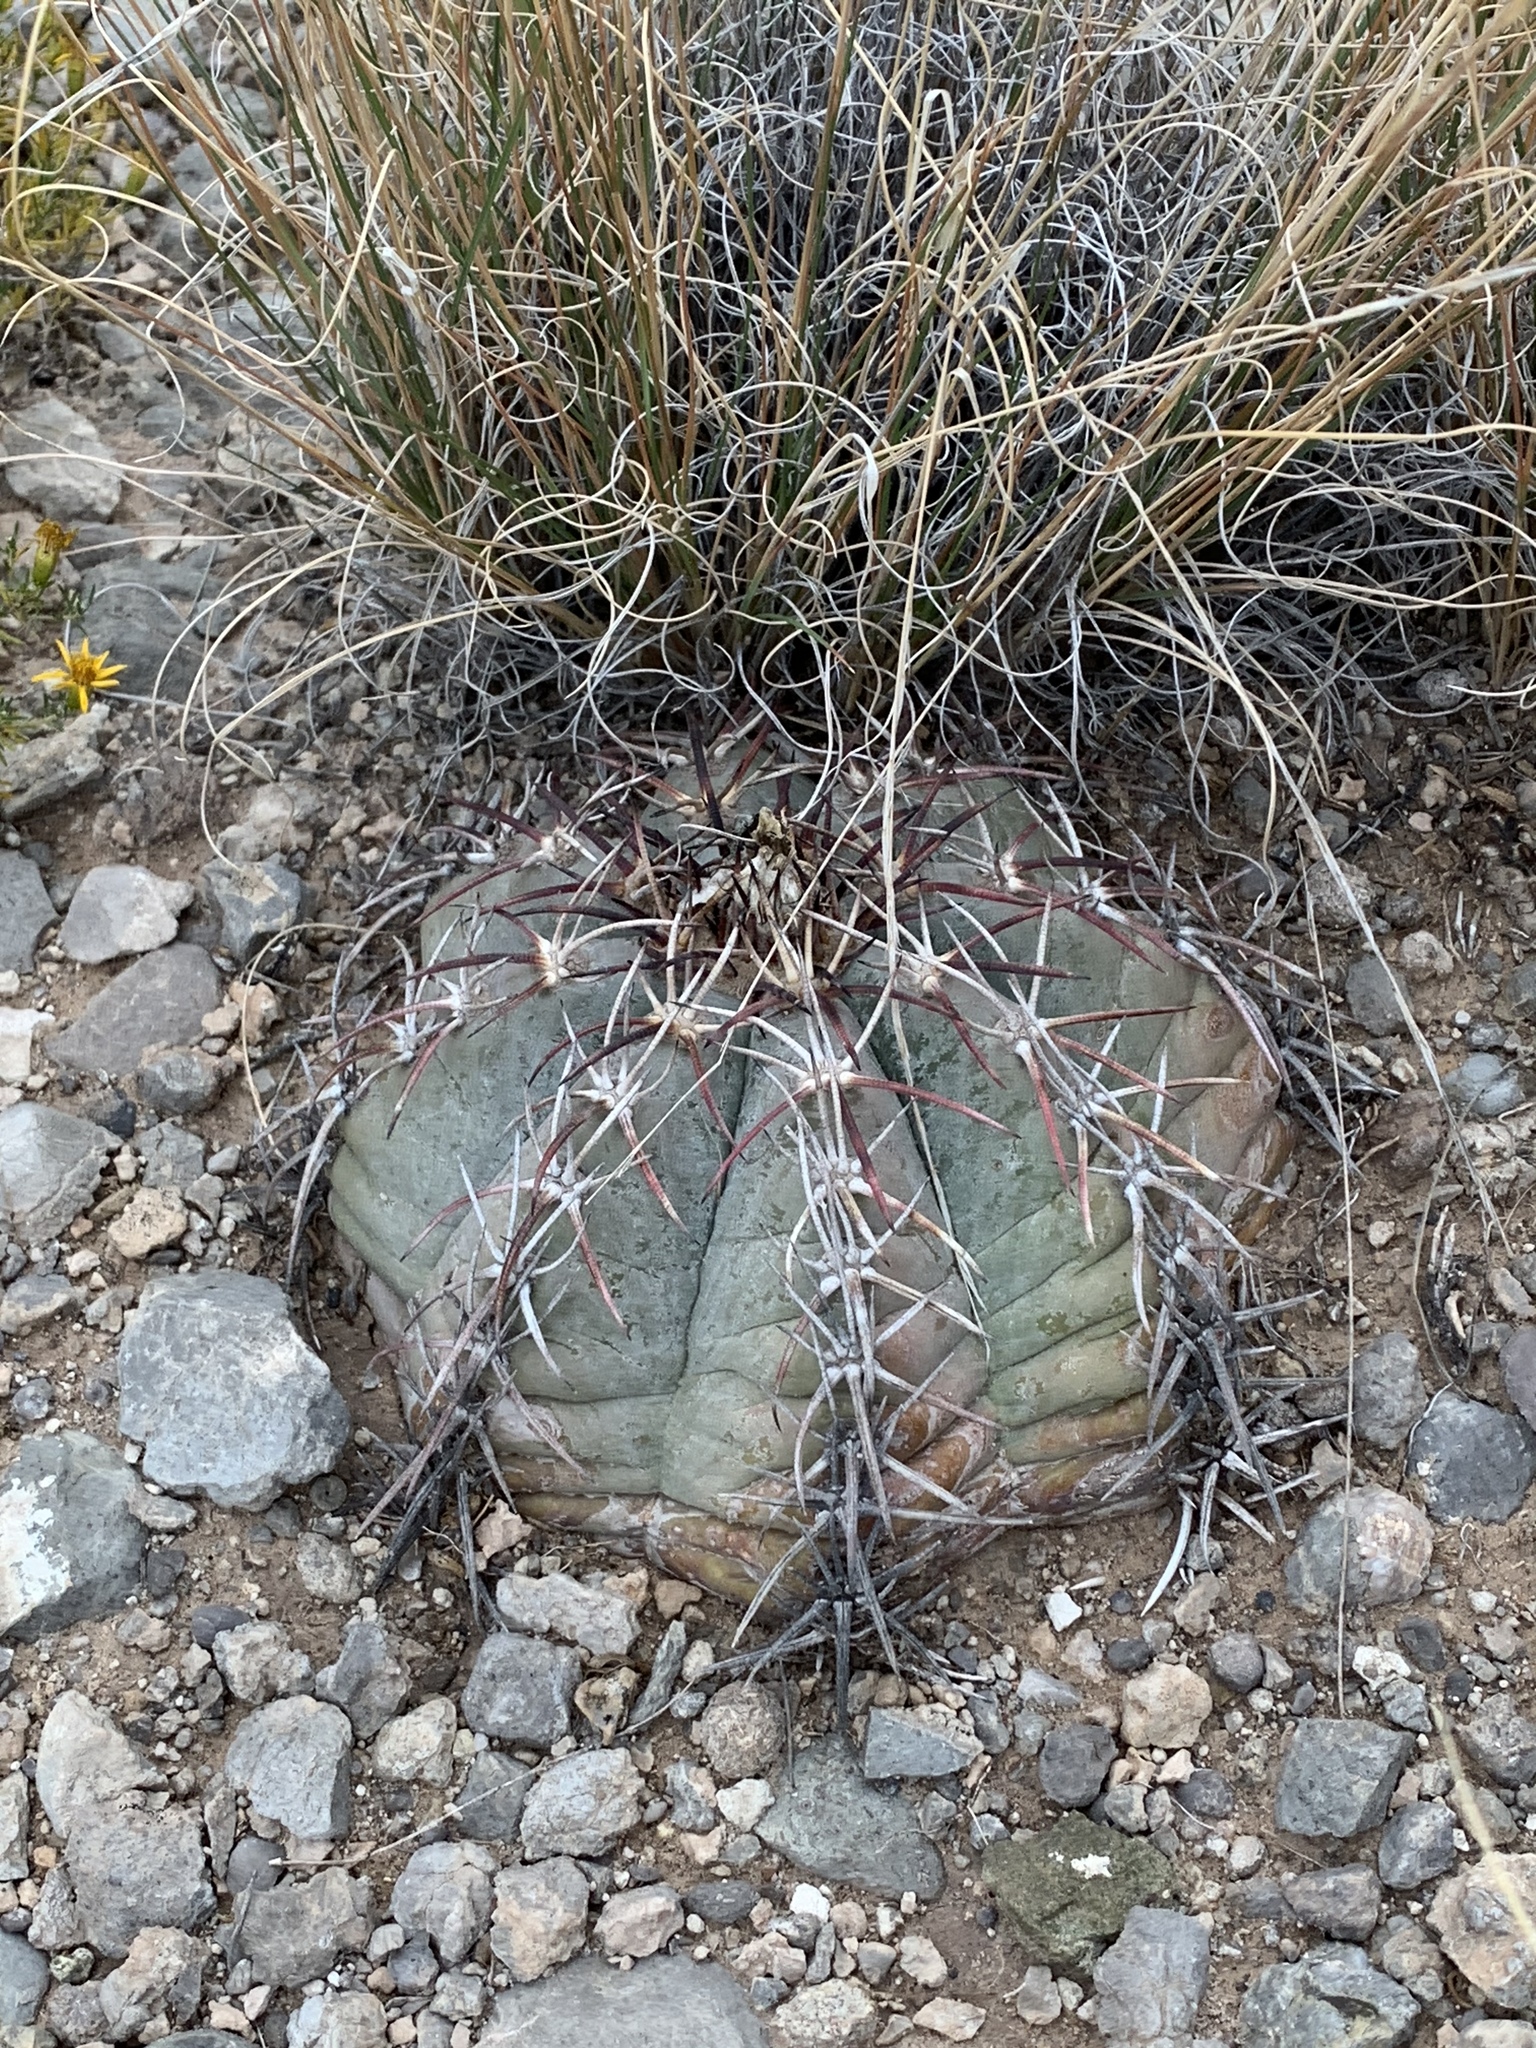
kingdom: Plantae
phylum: Tracheophyta
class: Magnoliopsida
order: Caryophyllales
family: Cactaceae
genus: Echinocactus
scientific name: Echinocactus horizonthalonius
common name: Devilshead
